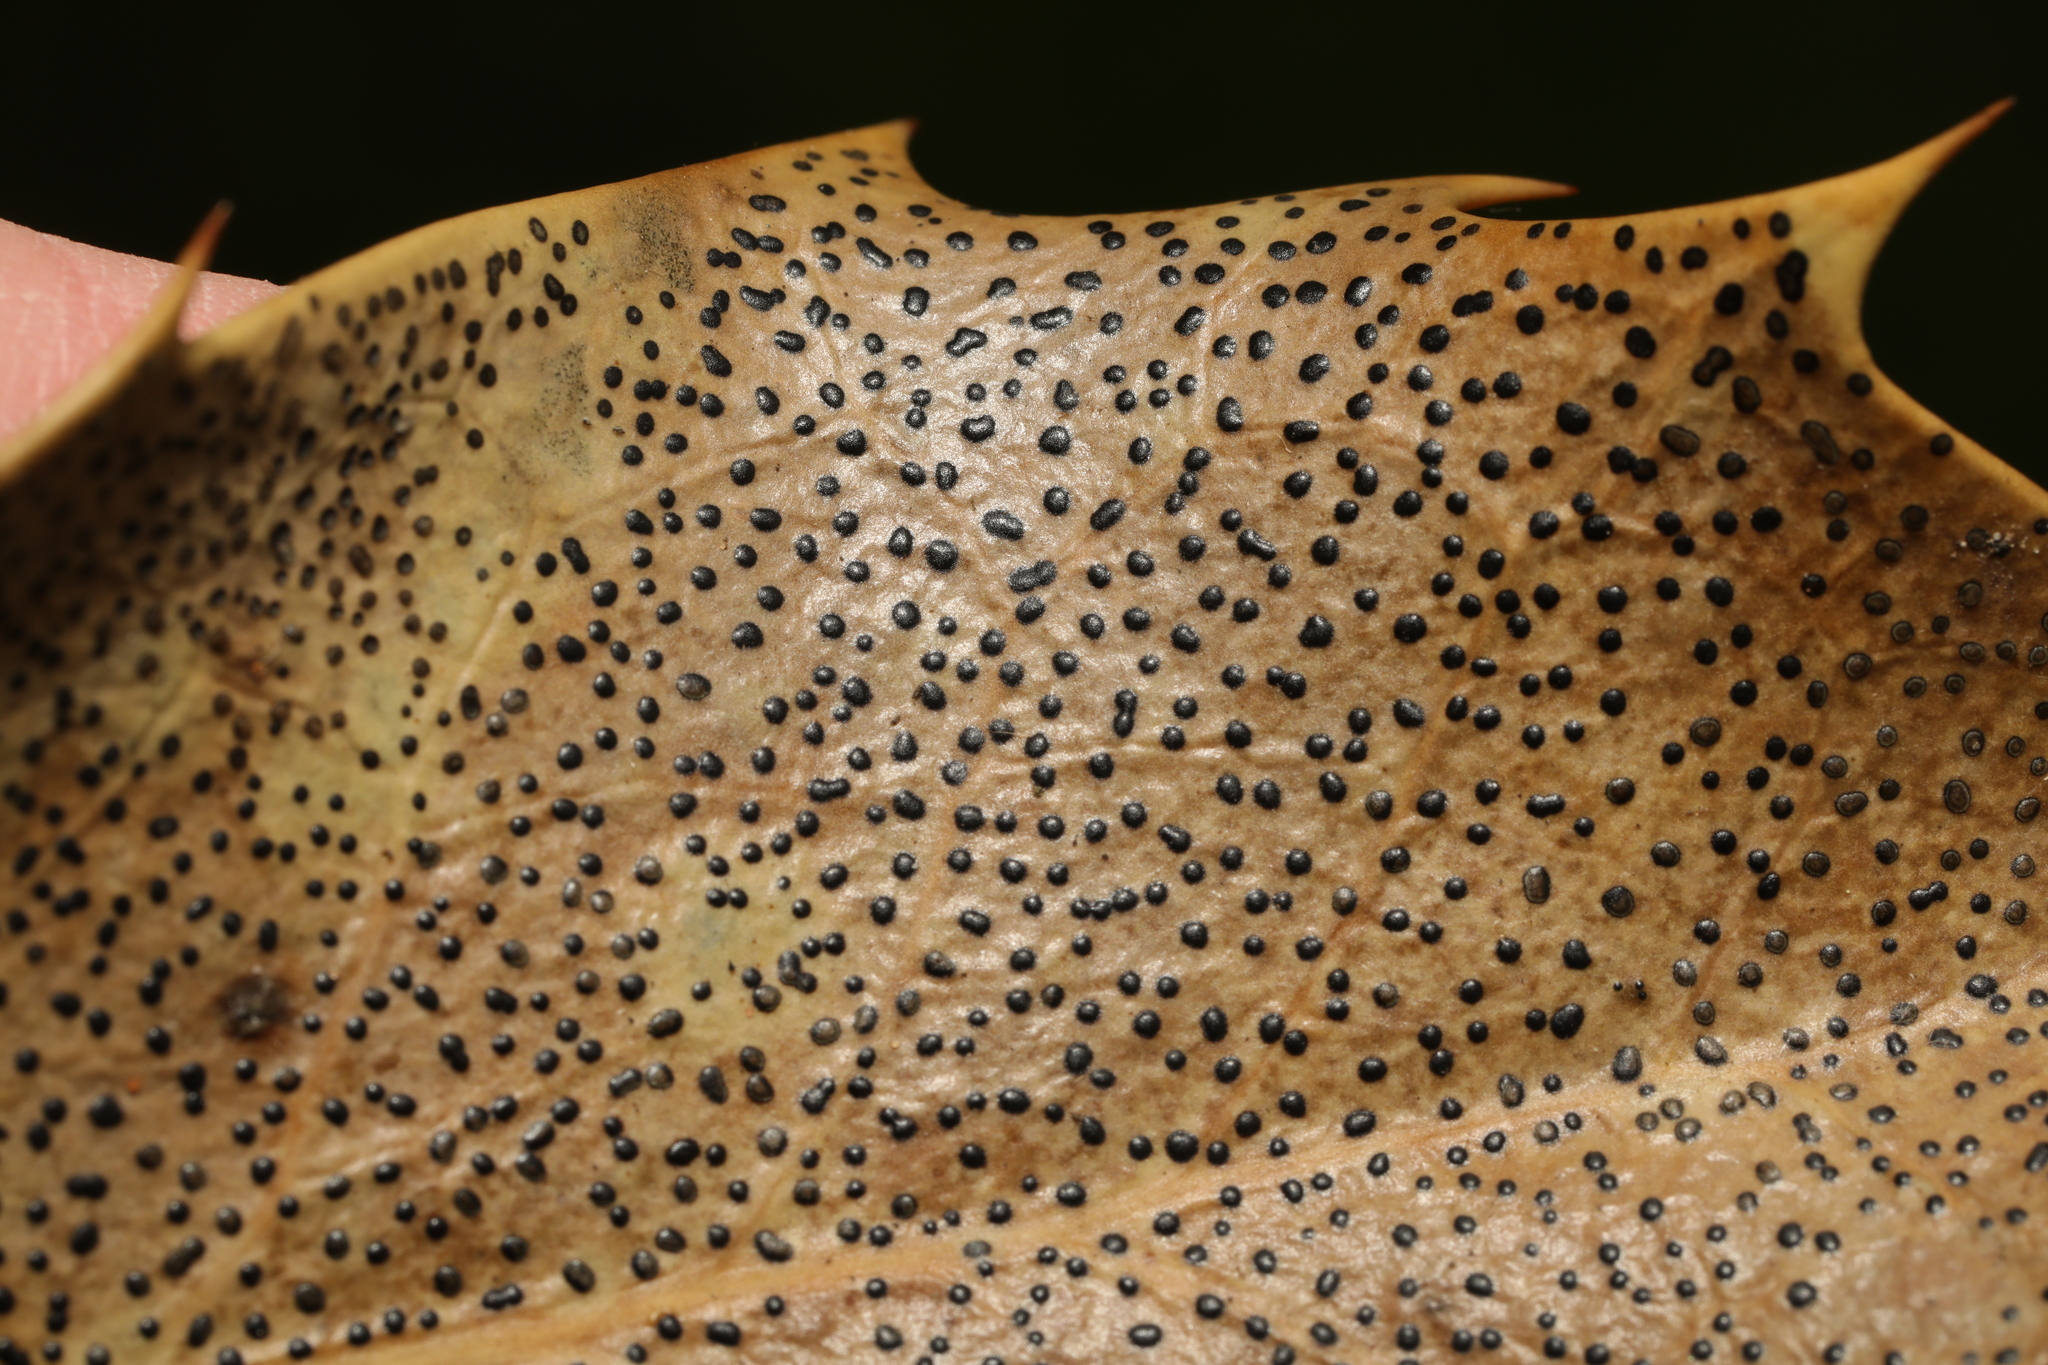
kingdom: Fungi
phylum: Ascomycota
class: Leotiomycetes
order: Helotiales
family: Cenangiaceae
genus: Trochila
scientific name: Trochila ilicina
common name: Holly speckle
